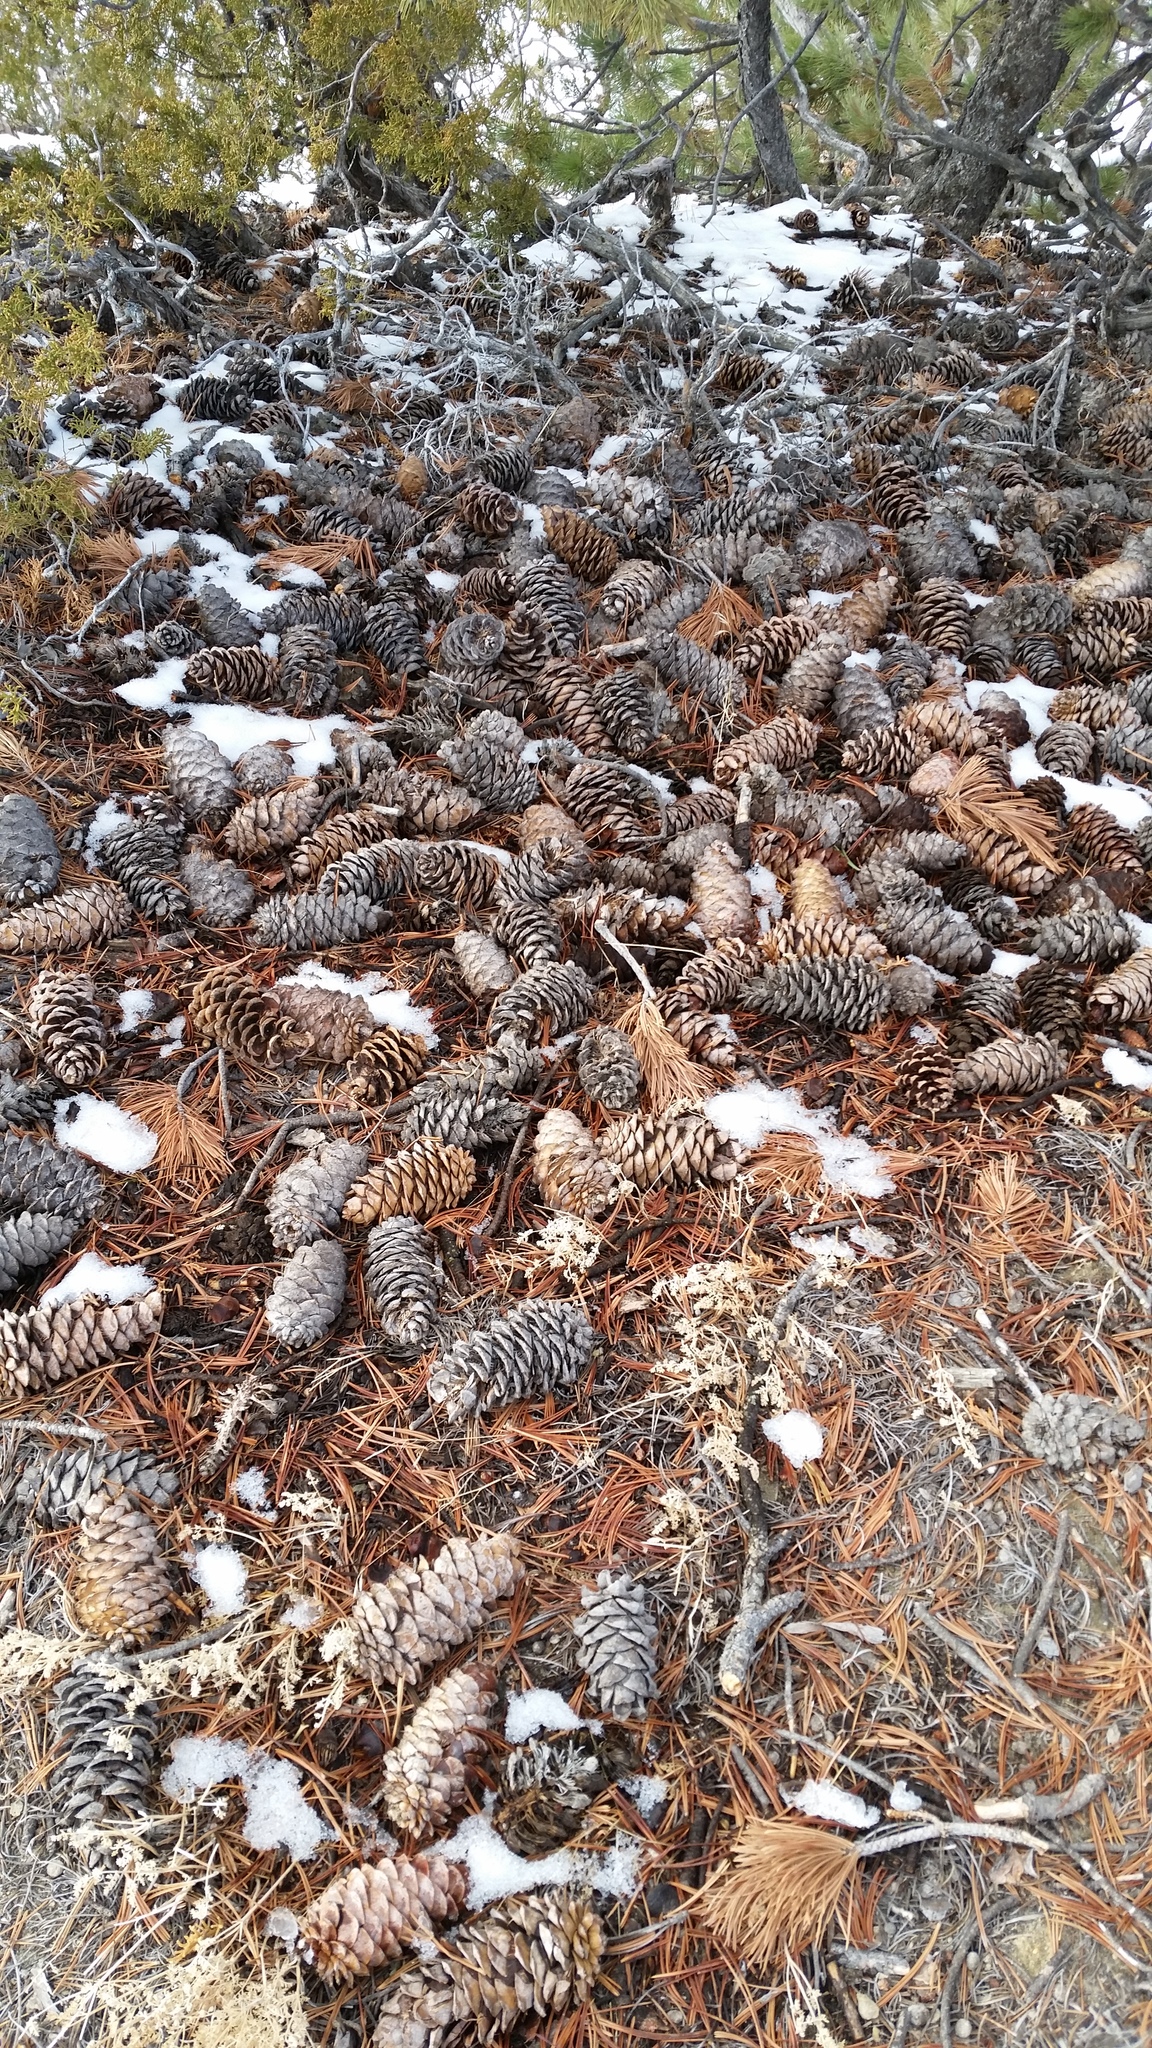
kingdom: Plantae
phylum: Tracheophyta
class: Pinopsida
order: Pinales
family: Pinaceae
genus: Pinus
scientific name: Pinus flexilis
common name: Limber pine
